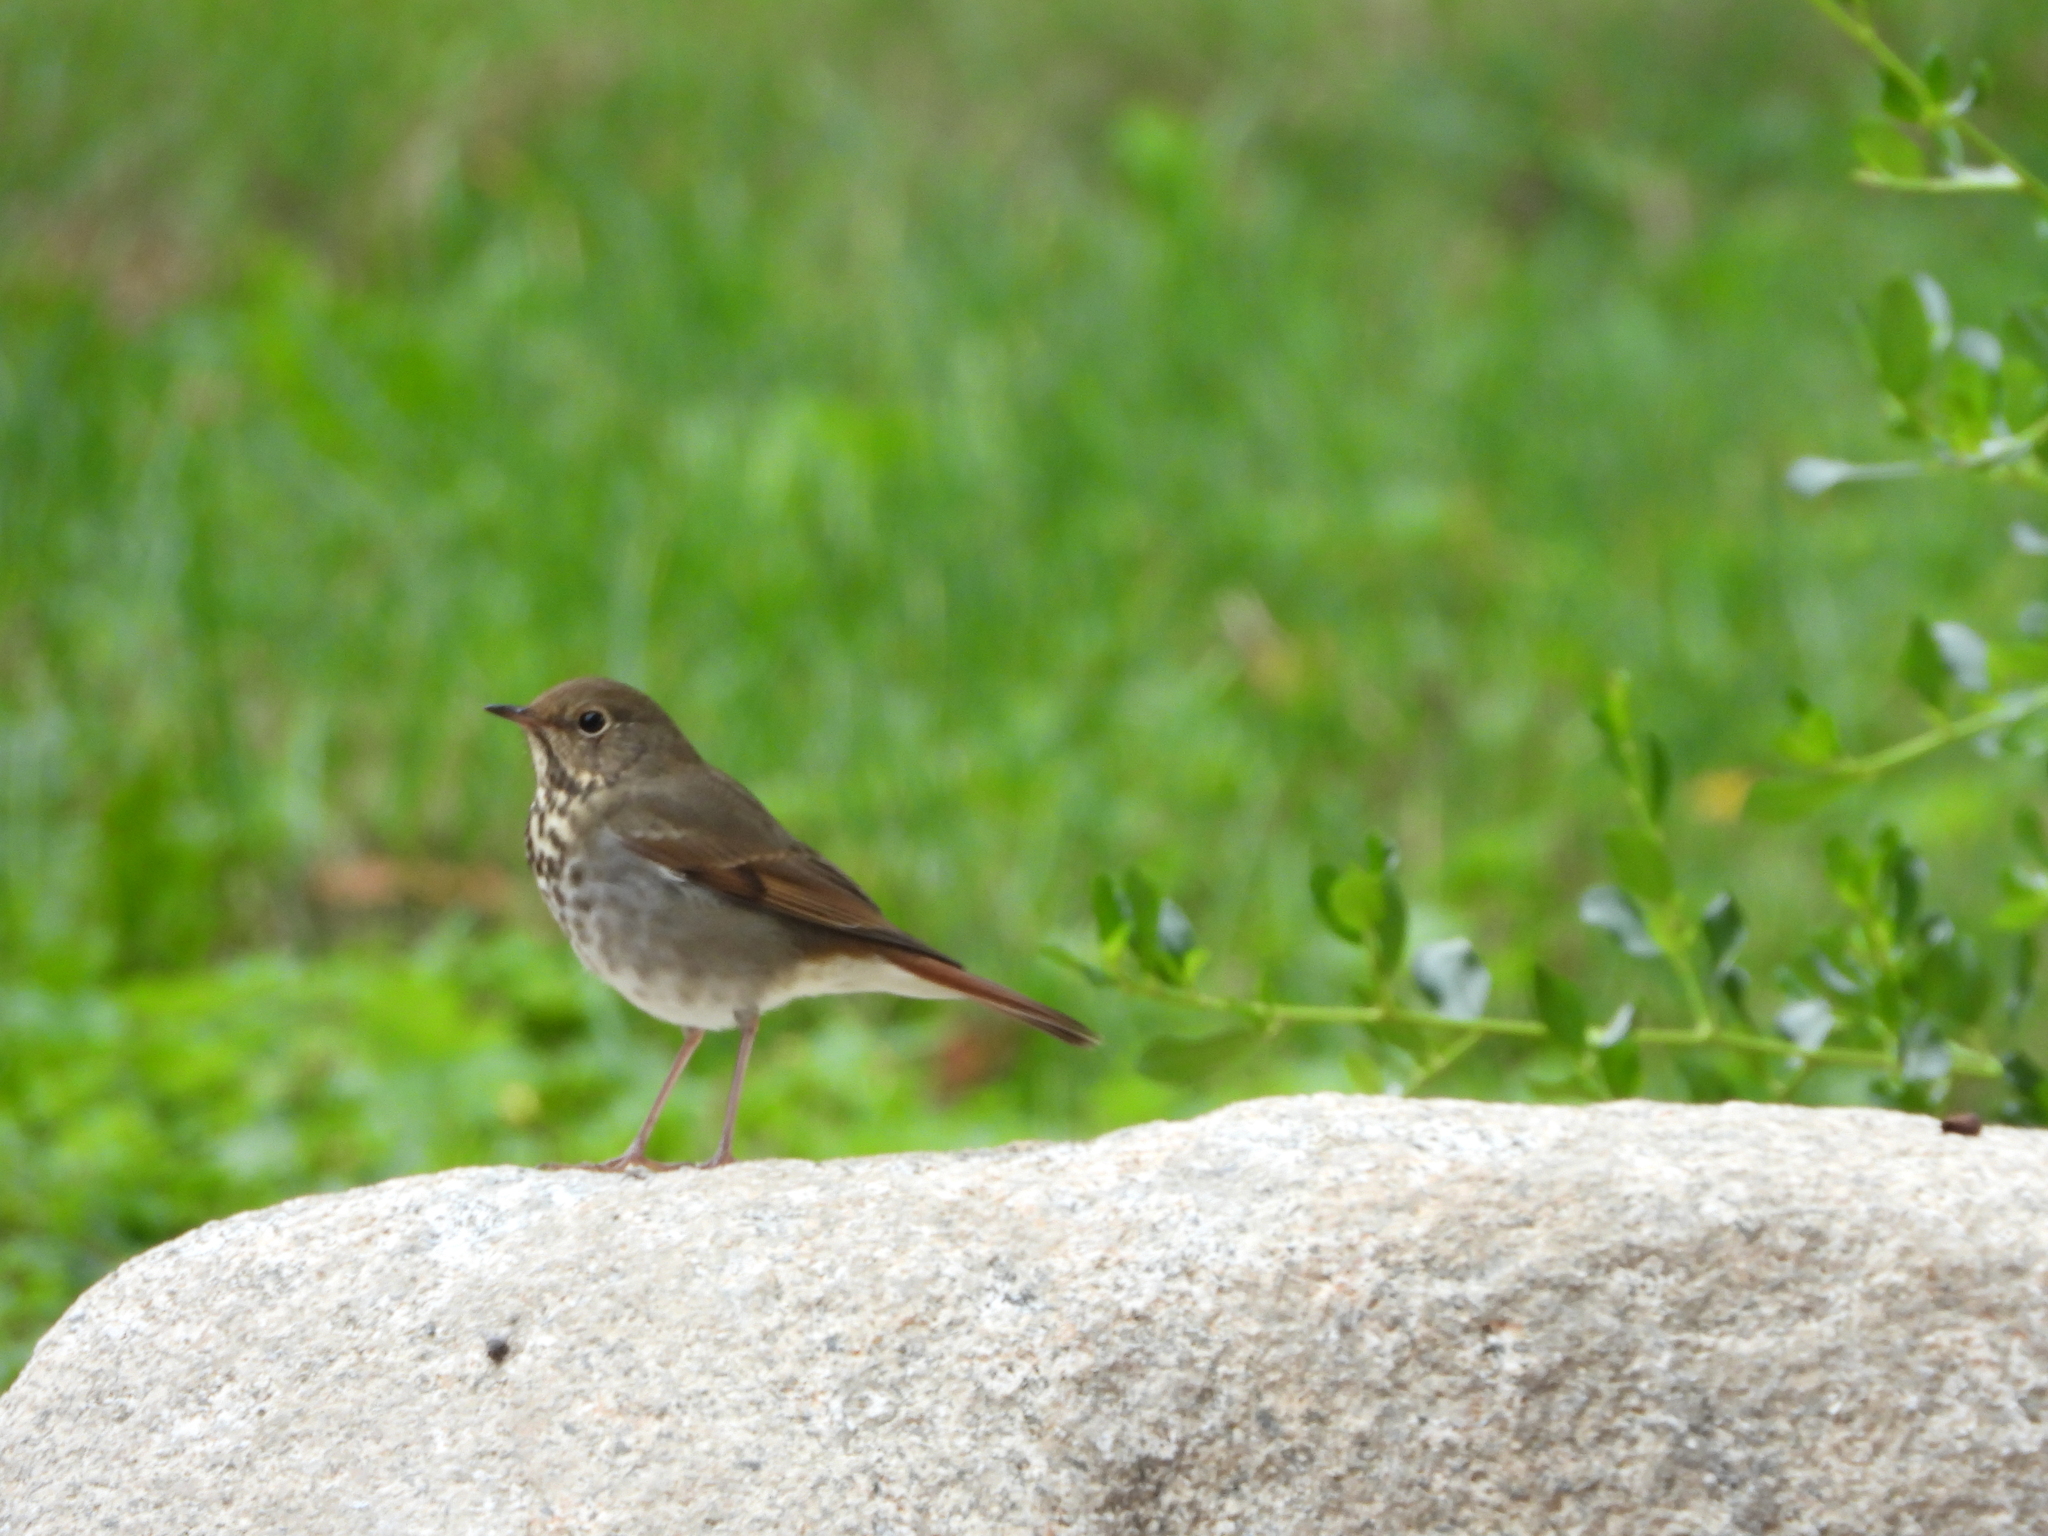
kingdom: Animalia
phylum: Chordata
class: Aves
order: Passeriformes
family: Turdidae
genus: Catharus
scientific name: Catharus guttatus
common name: Hermit thrush
